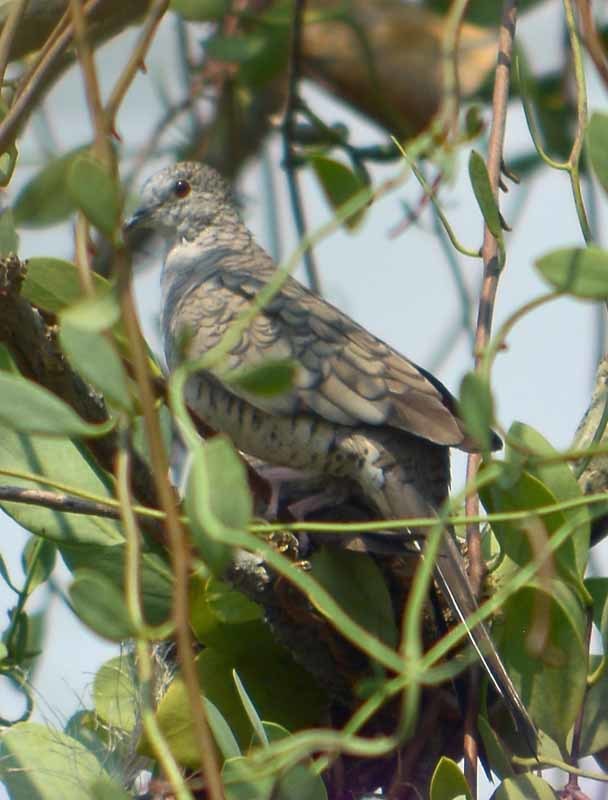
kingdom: Animalia
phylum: Chordata
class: Aves
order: Columbiformes
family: Columbidae
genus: Columbina
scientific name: Columbina inca
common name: Inca dove
